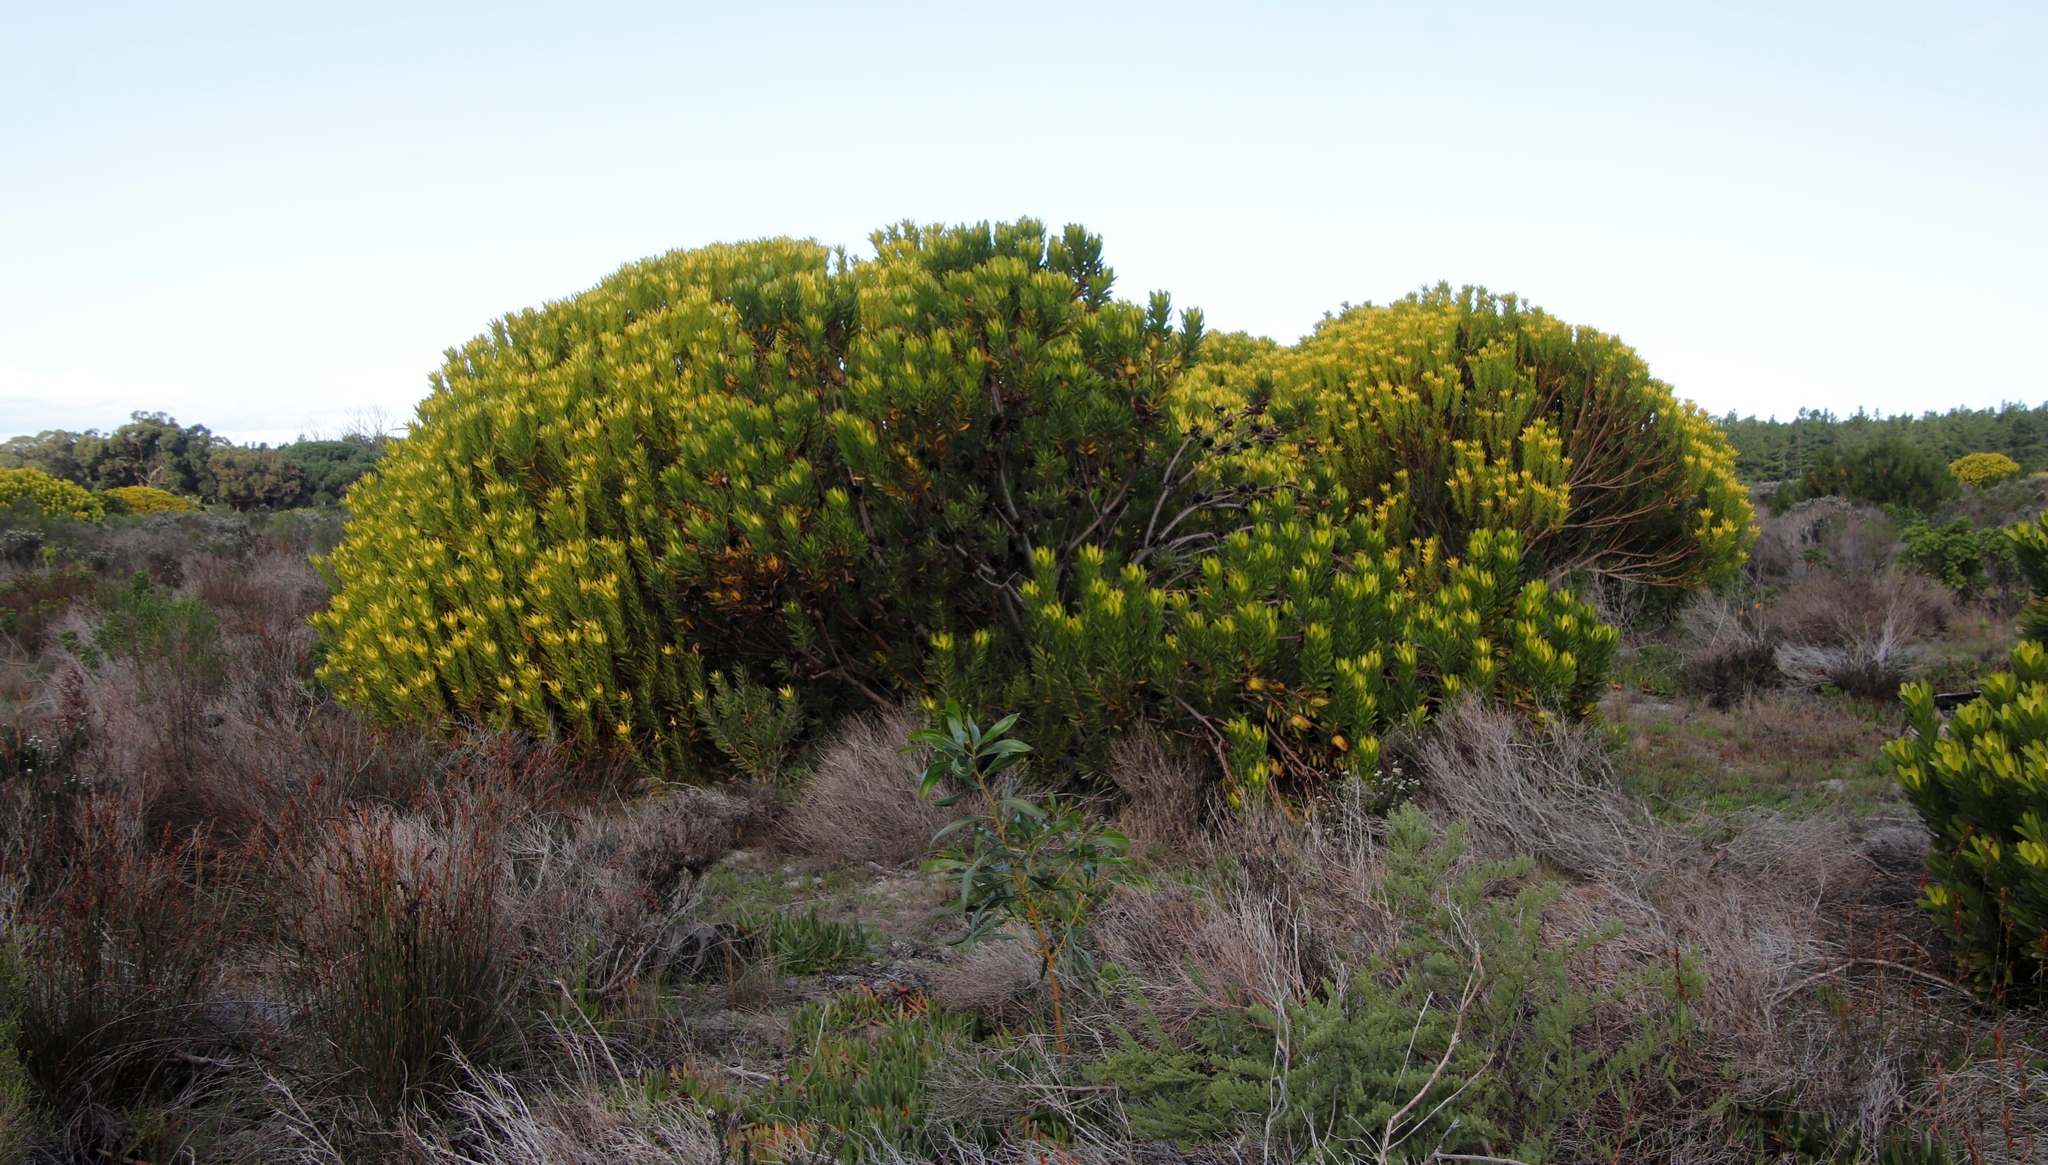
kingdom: Plantae
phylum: Tracheophyta
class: Magnoliopsida
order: Proteales
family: Proteaceae
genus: Leucadendron
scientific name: Leucadendron laureolum
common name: Golden sunshinebush
